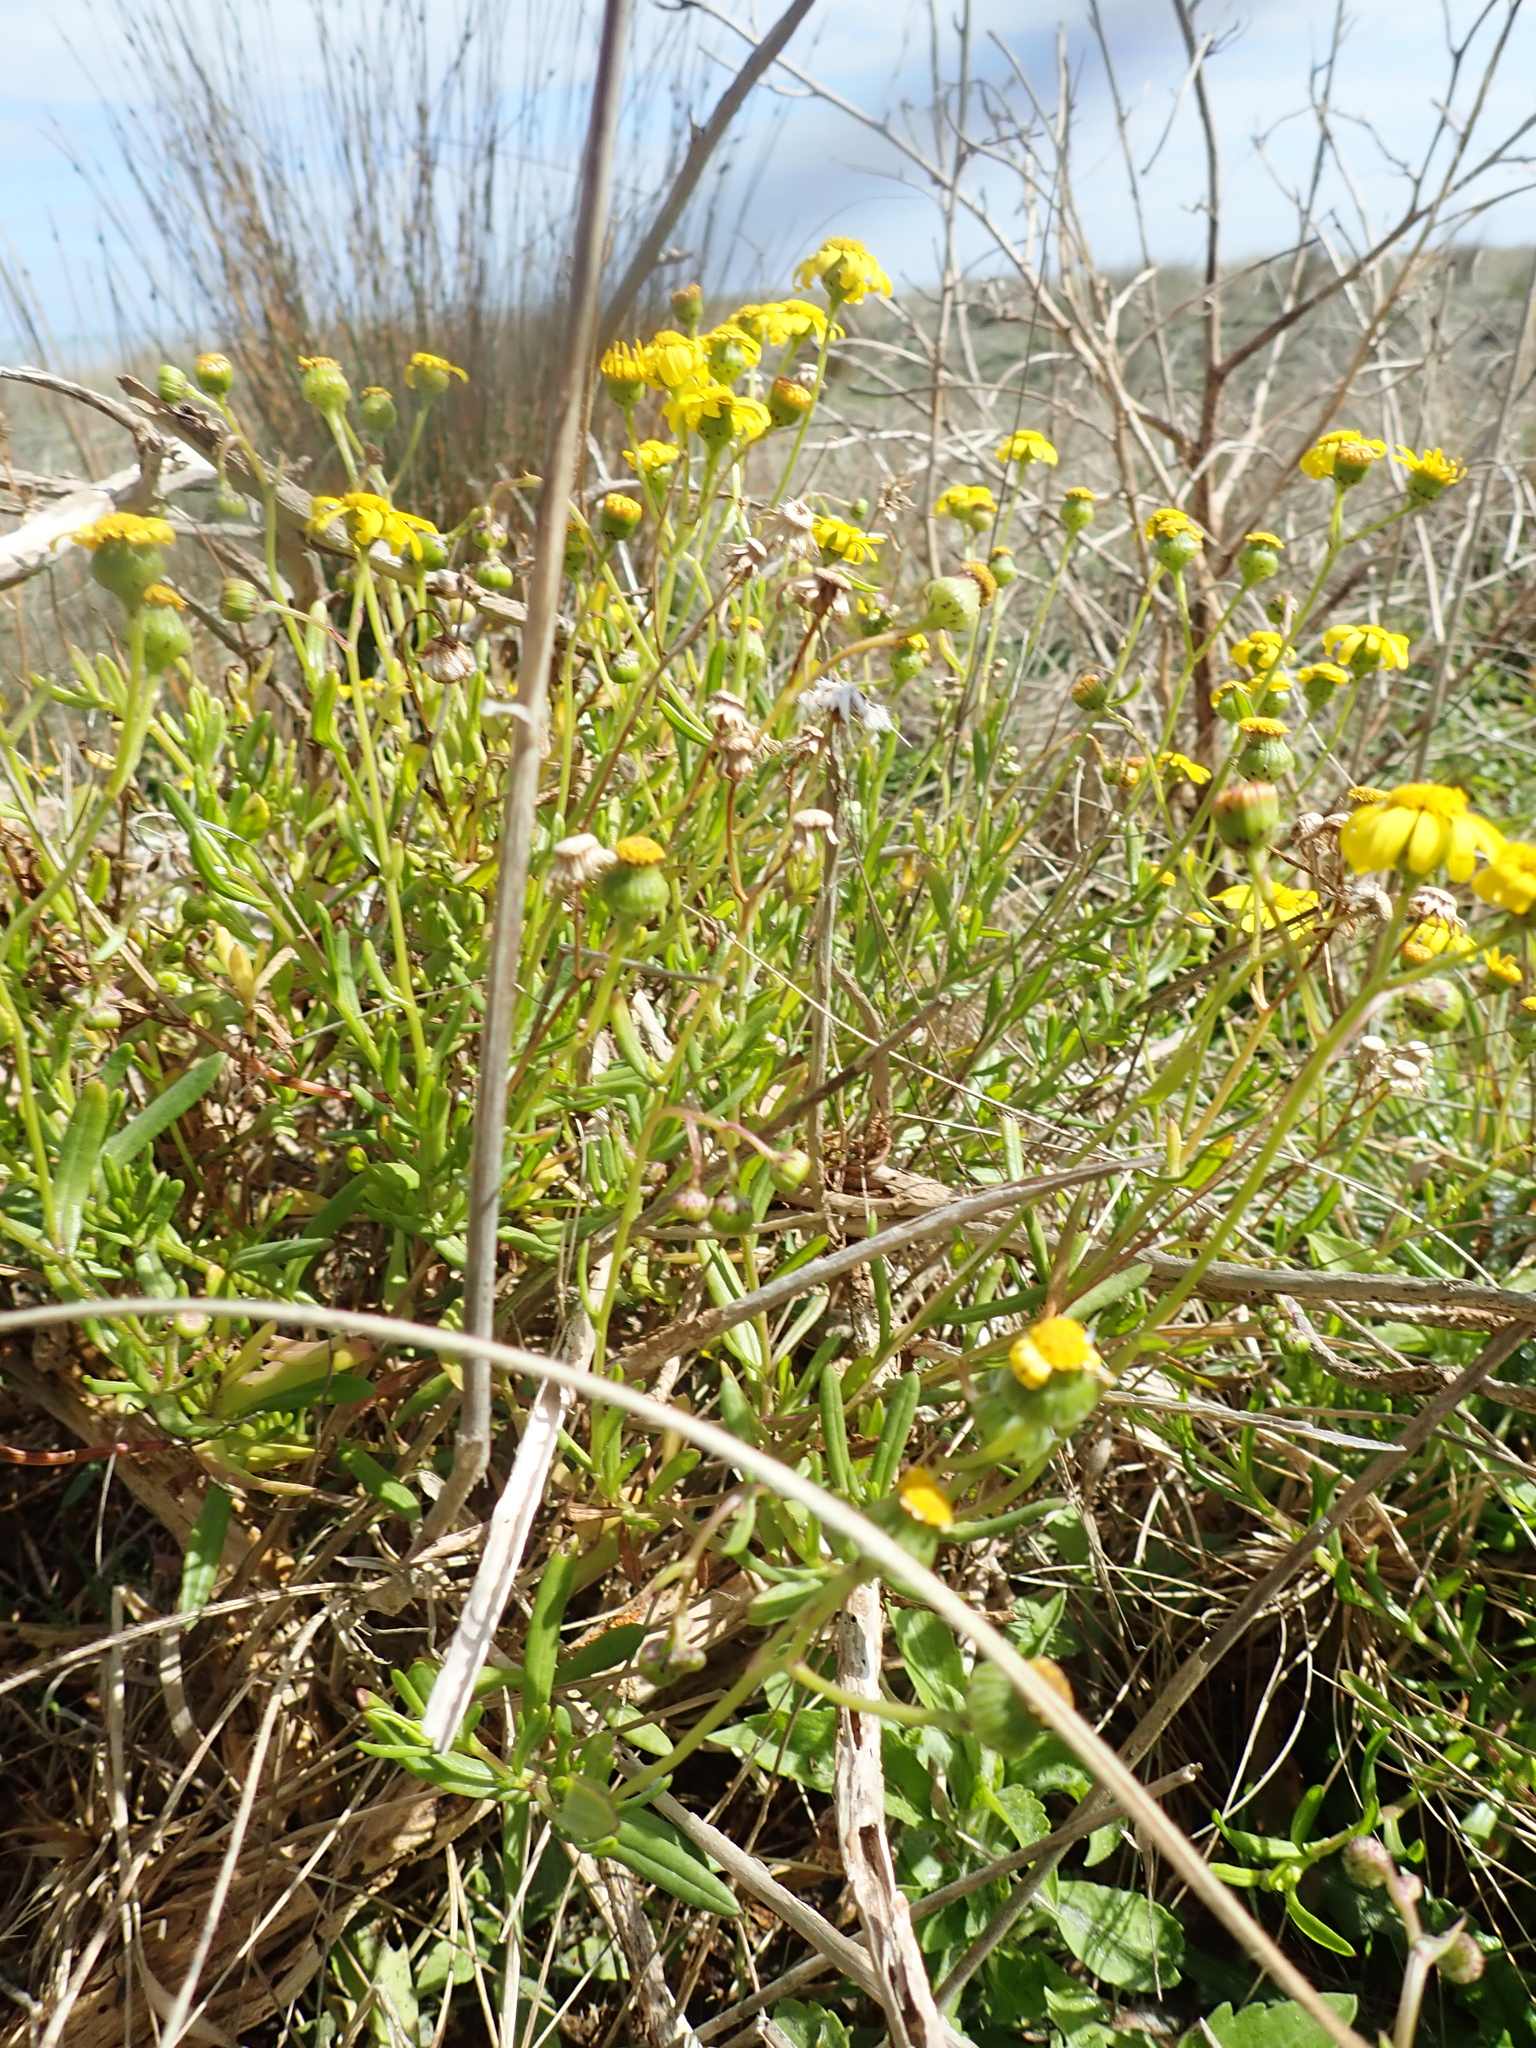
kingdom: Plantae
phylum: Tracheophyta
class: Magnoliopsida
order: Asterales
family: Asteraceae
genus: Senecio
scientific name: Senecio skirrhodon
